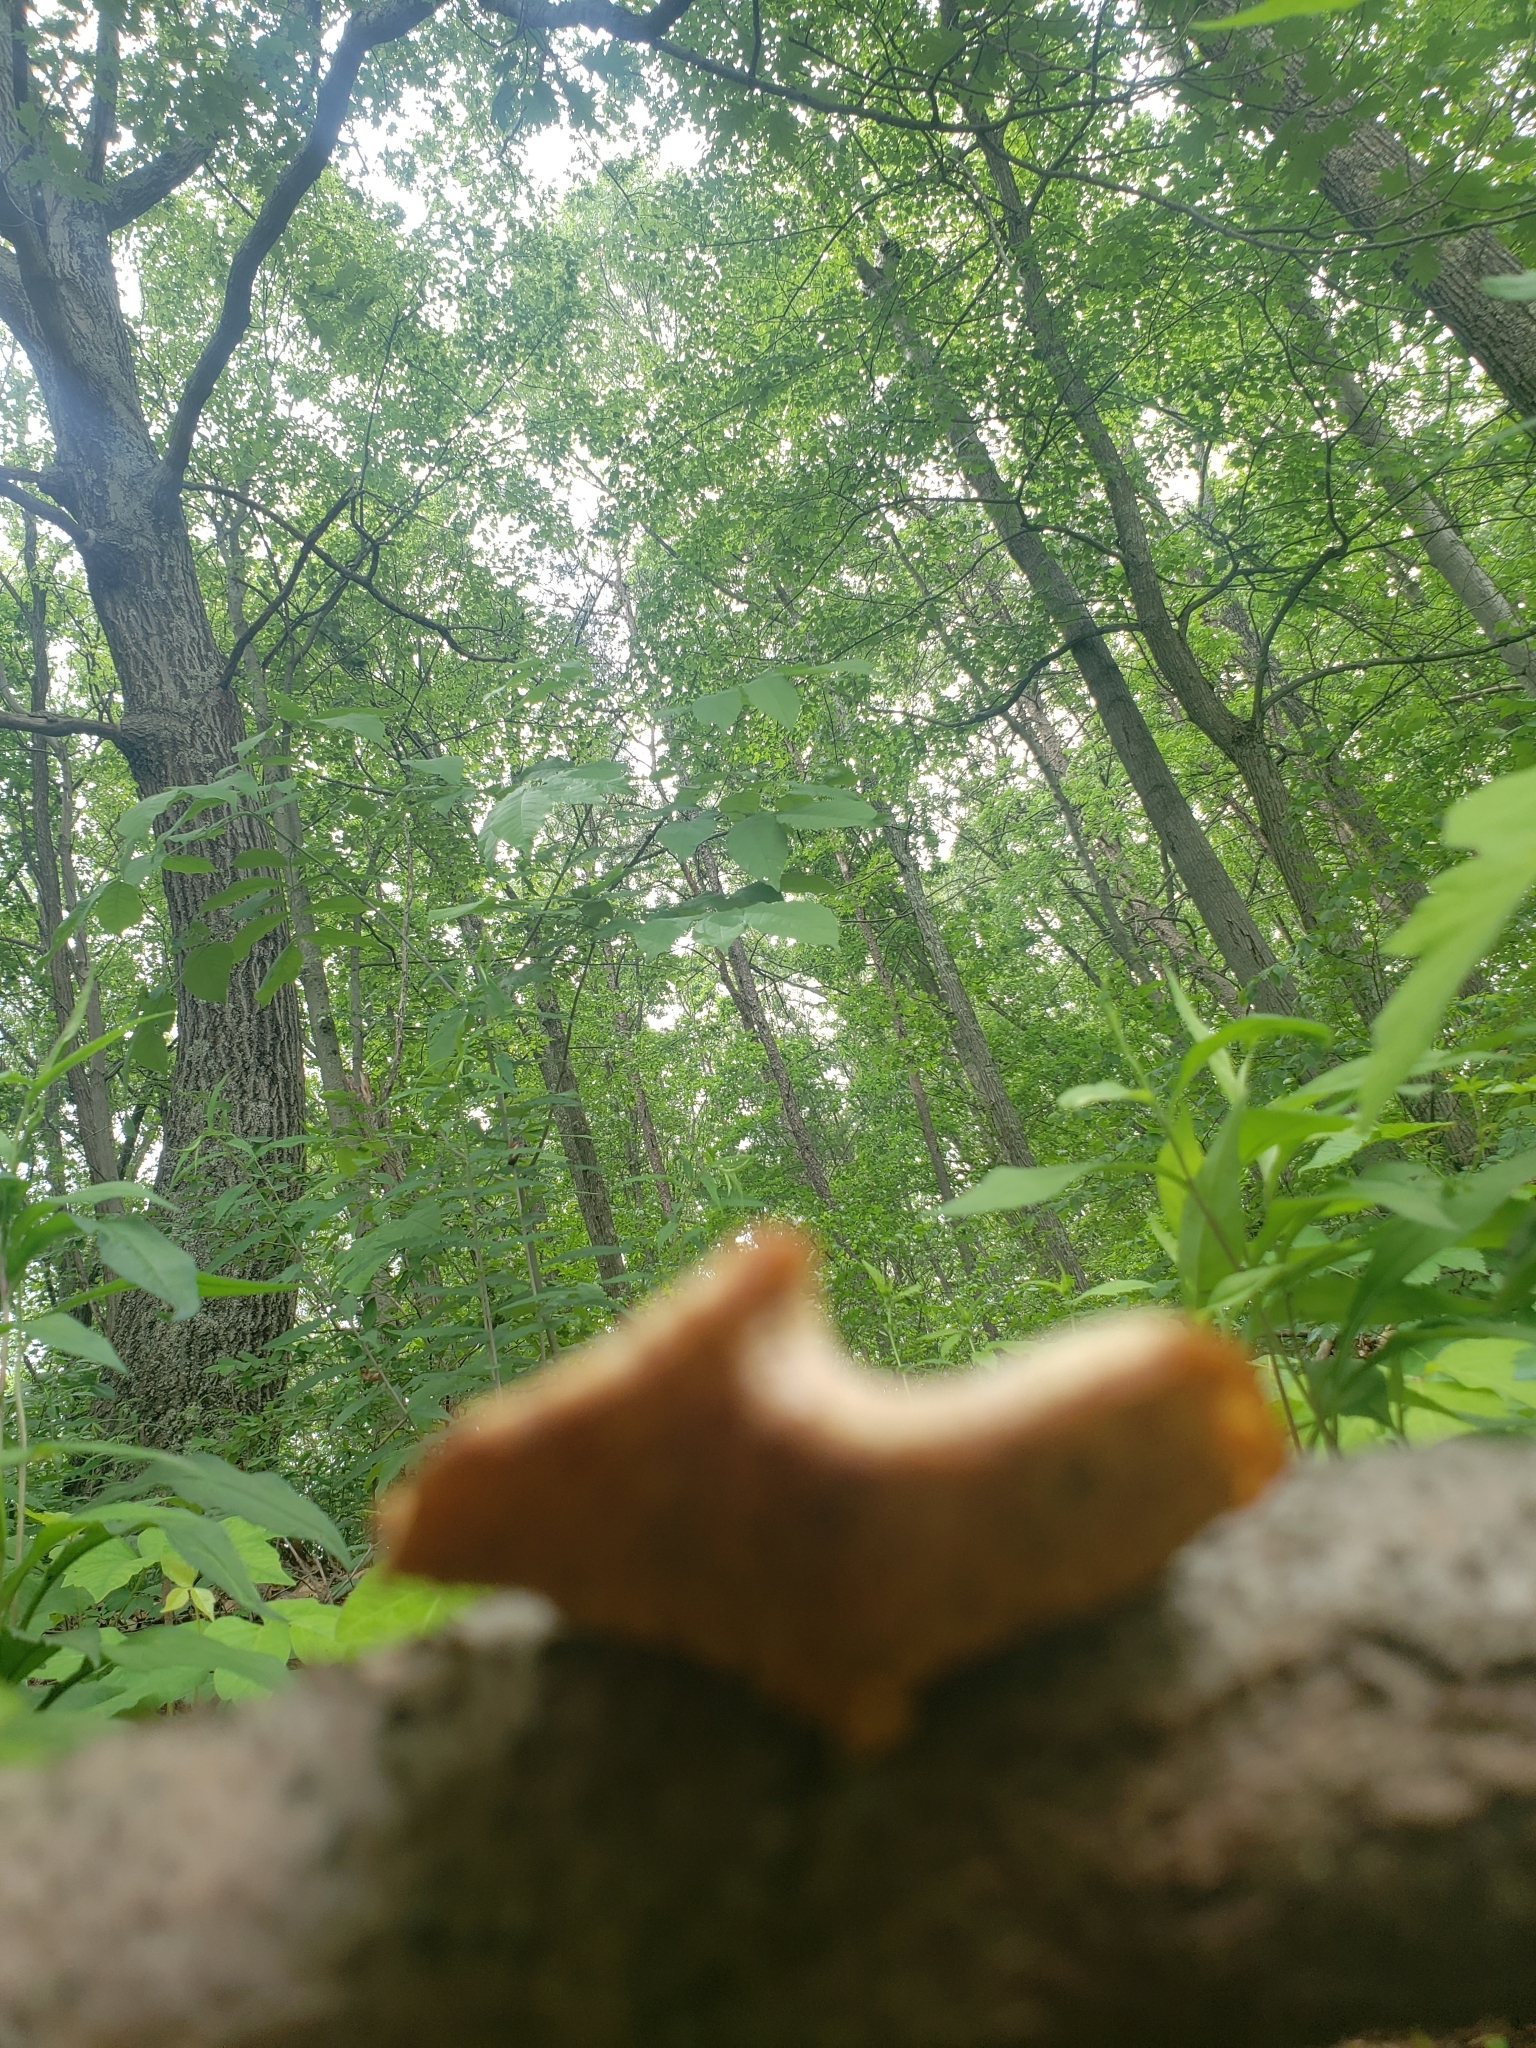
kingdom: Fungi
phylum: Basidiomycota
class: Agaricomycetes
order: Polyporales
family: Polyporaceae
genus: Neofavolus
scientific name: Neofavolus alveolaris
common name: Hexagonal-pored polypore
